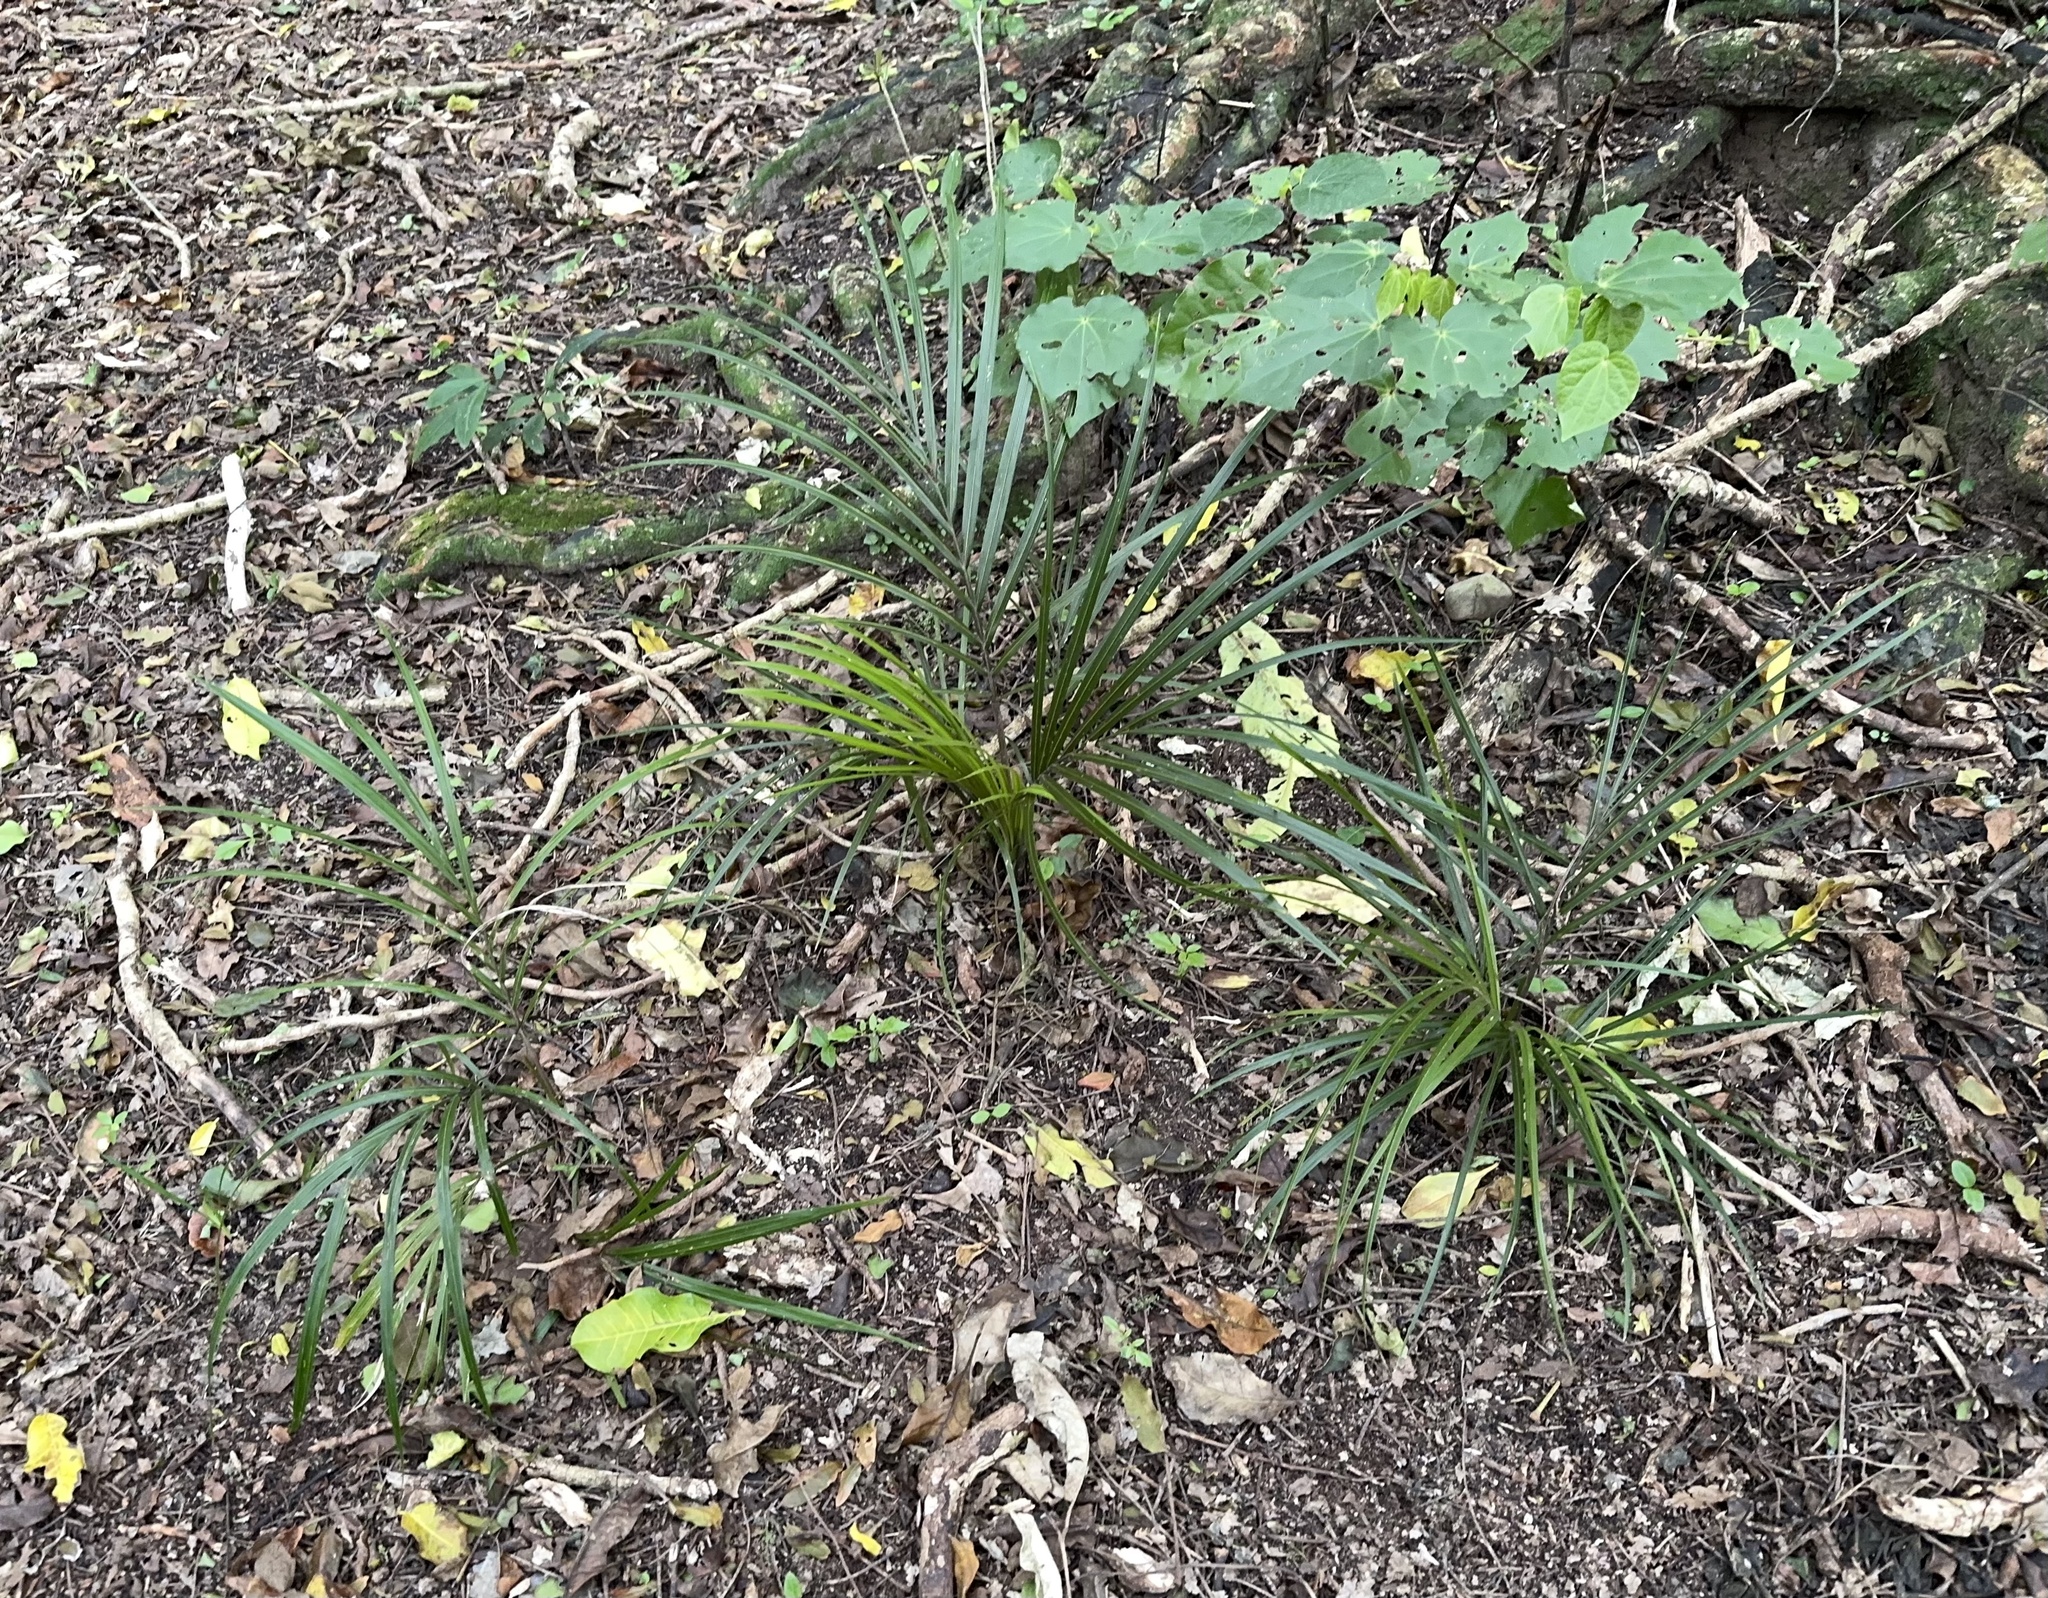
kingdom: Plantae
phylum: Tracheophyta
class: Liliopsida
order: Arecales
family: Arecaceae
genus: Rhopalostylis
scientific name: Rhopalostylis sapida
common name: Feather-duster palm
